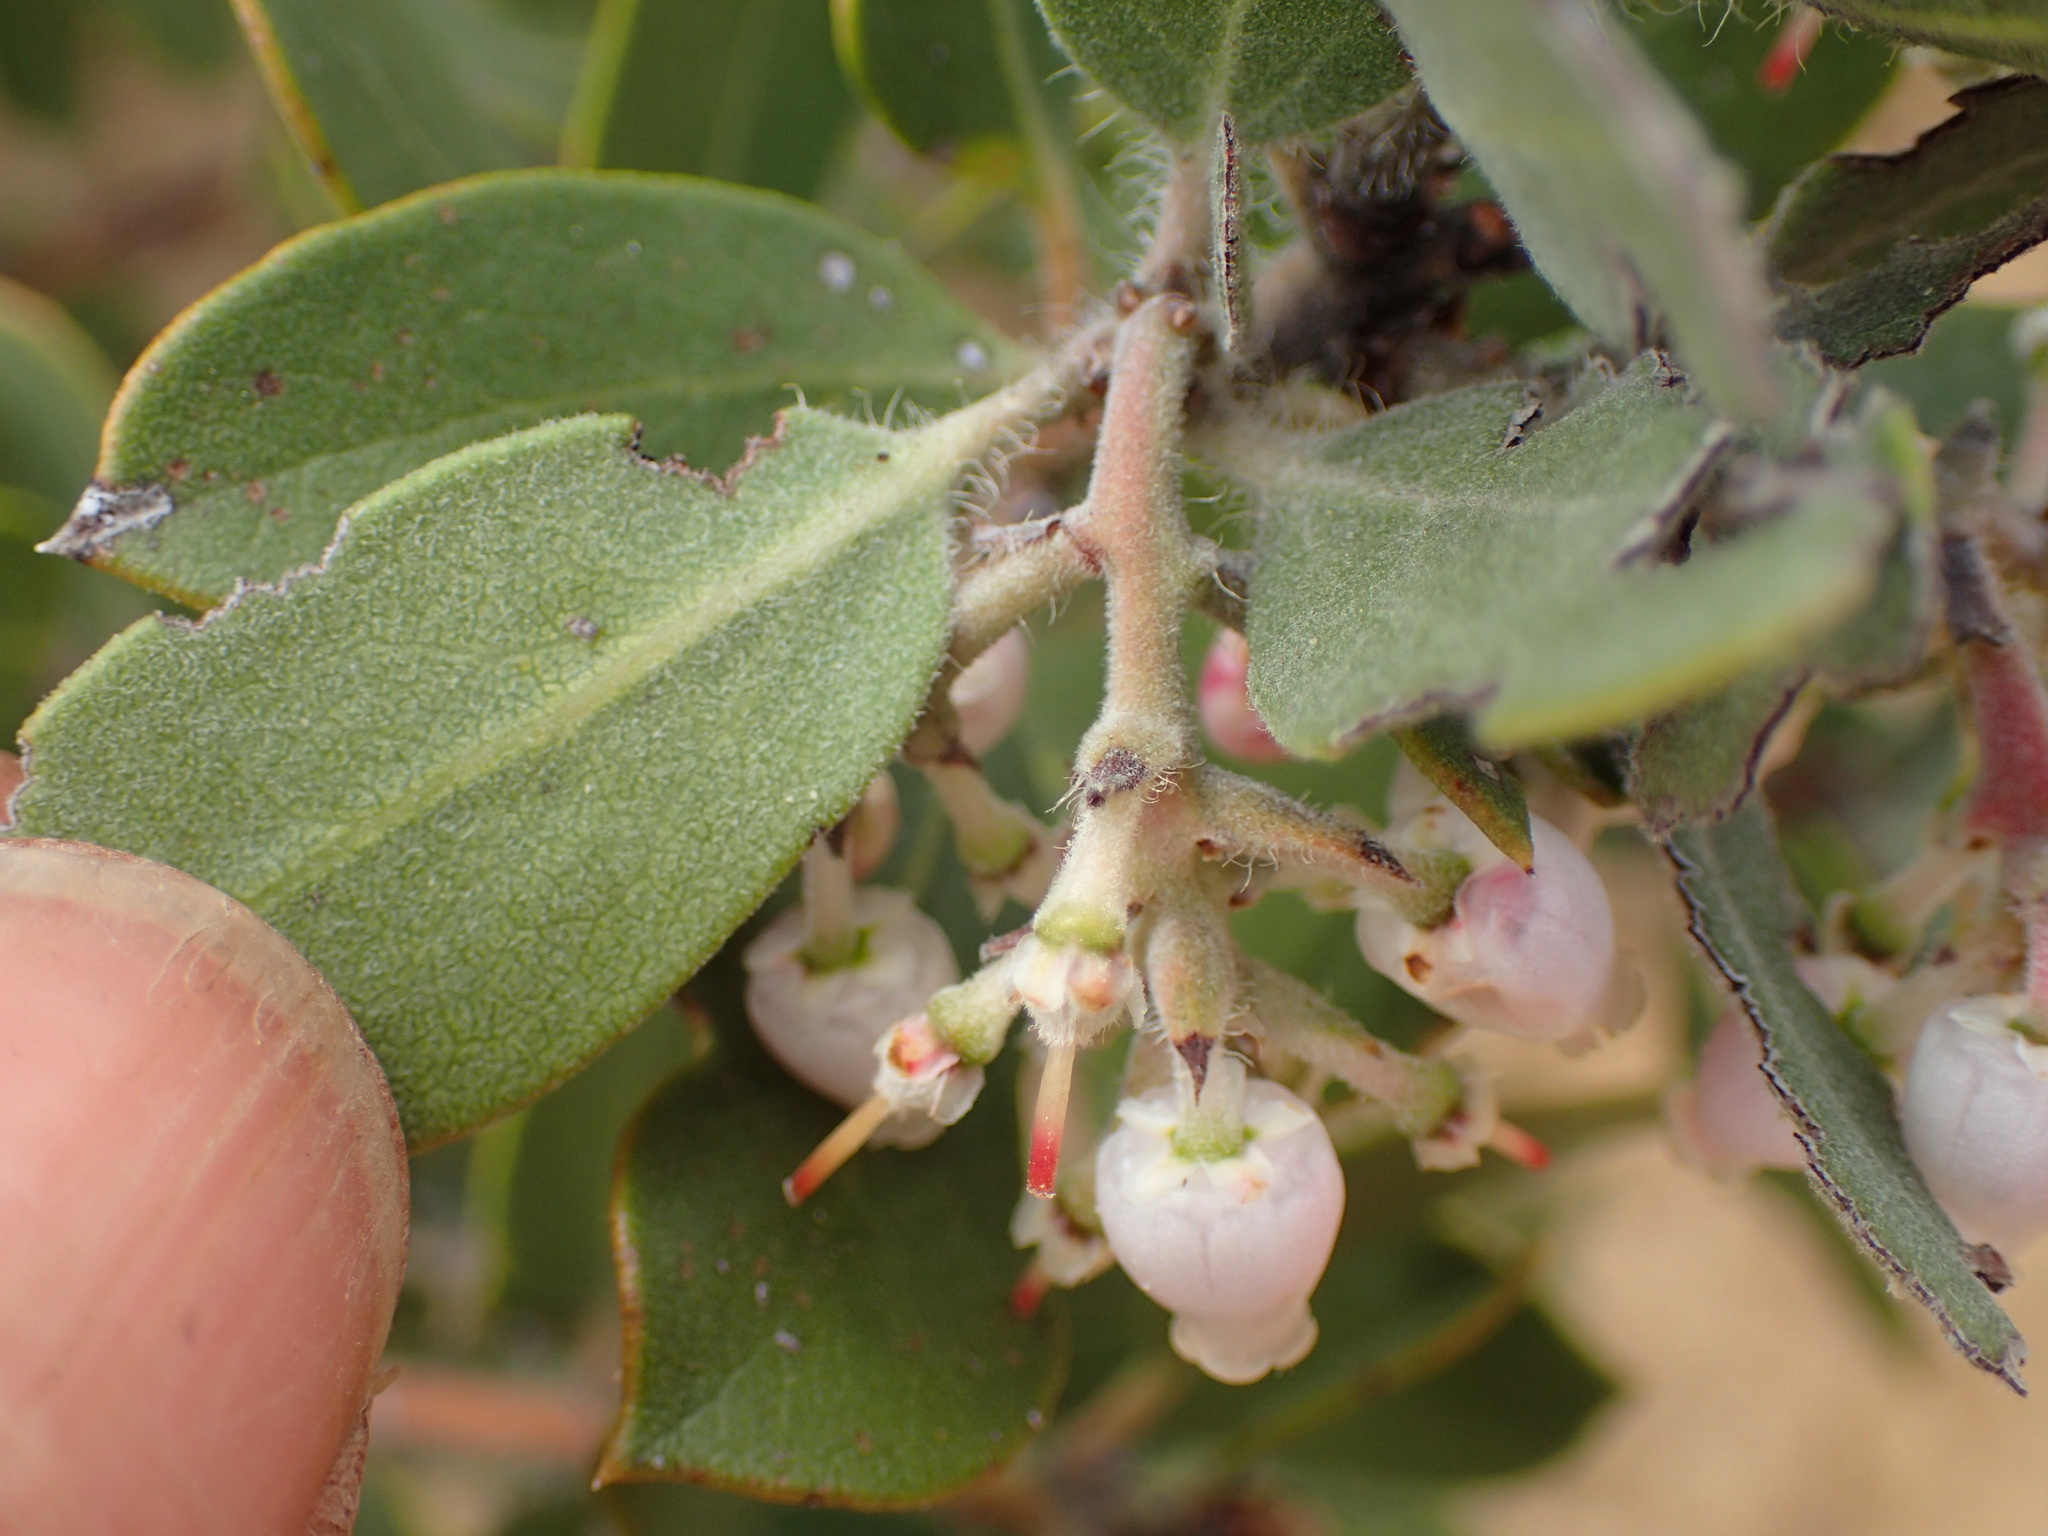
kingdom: Plantae
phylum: Tracheophyta
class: Magnoliopsida
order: Ericales
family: Ericaceae
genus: Arctostaphylos
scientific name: Arctostaphylos crustacea
